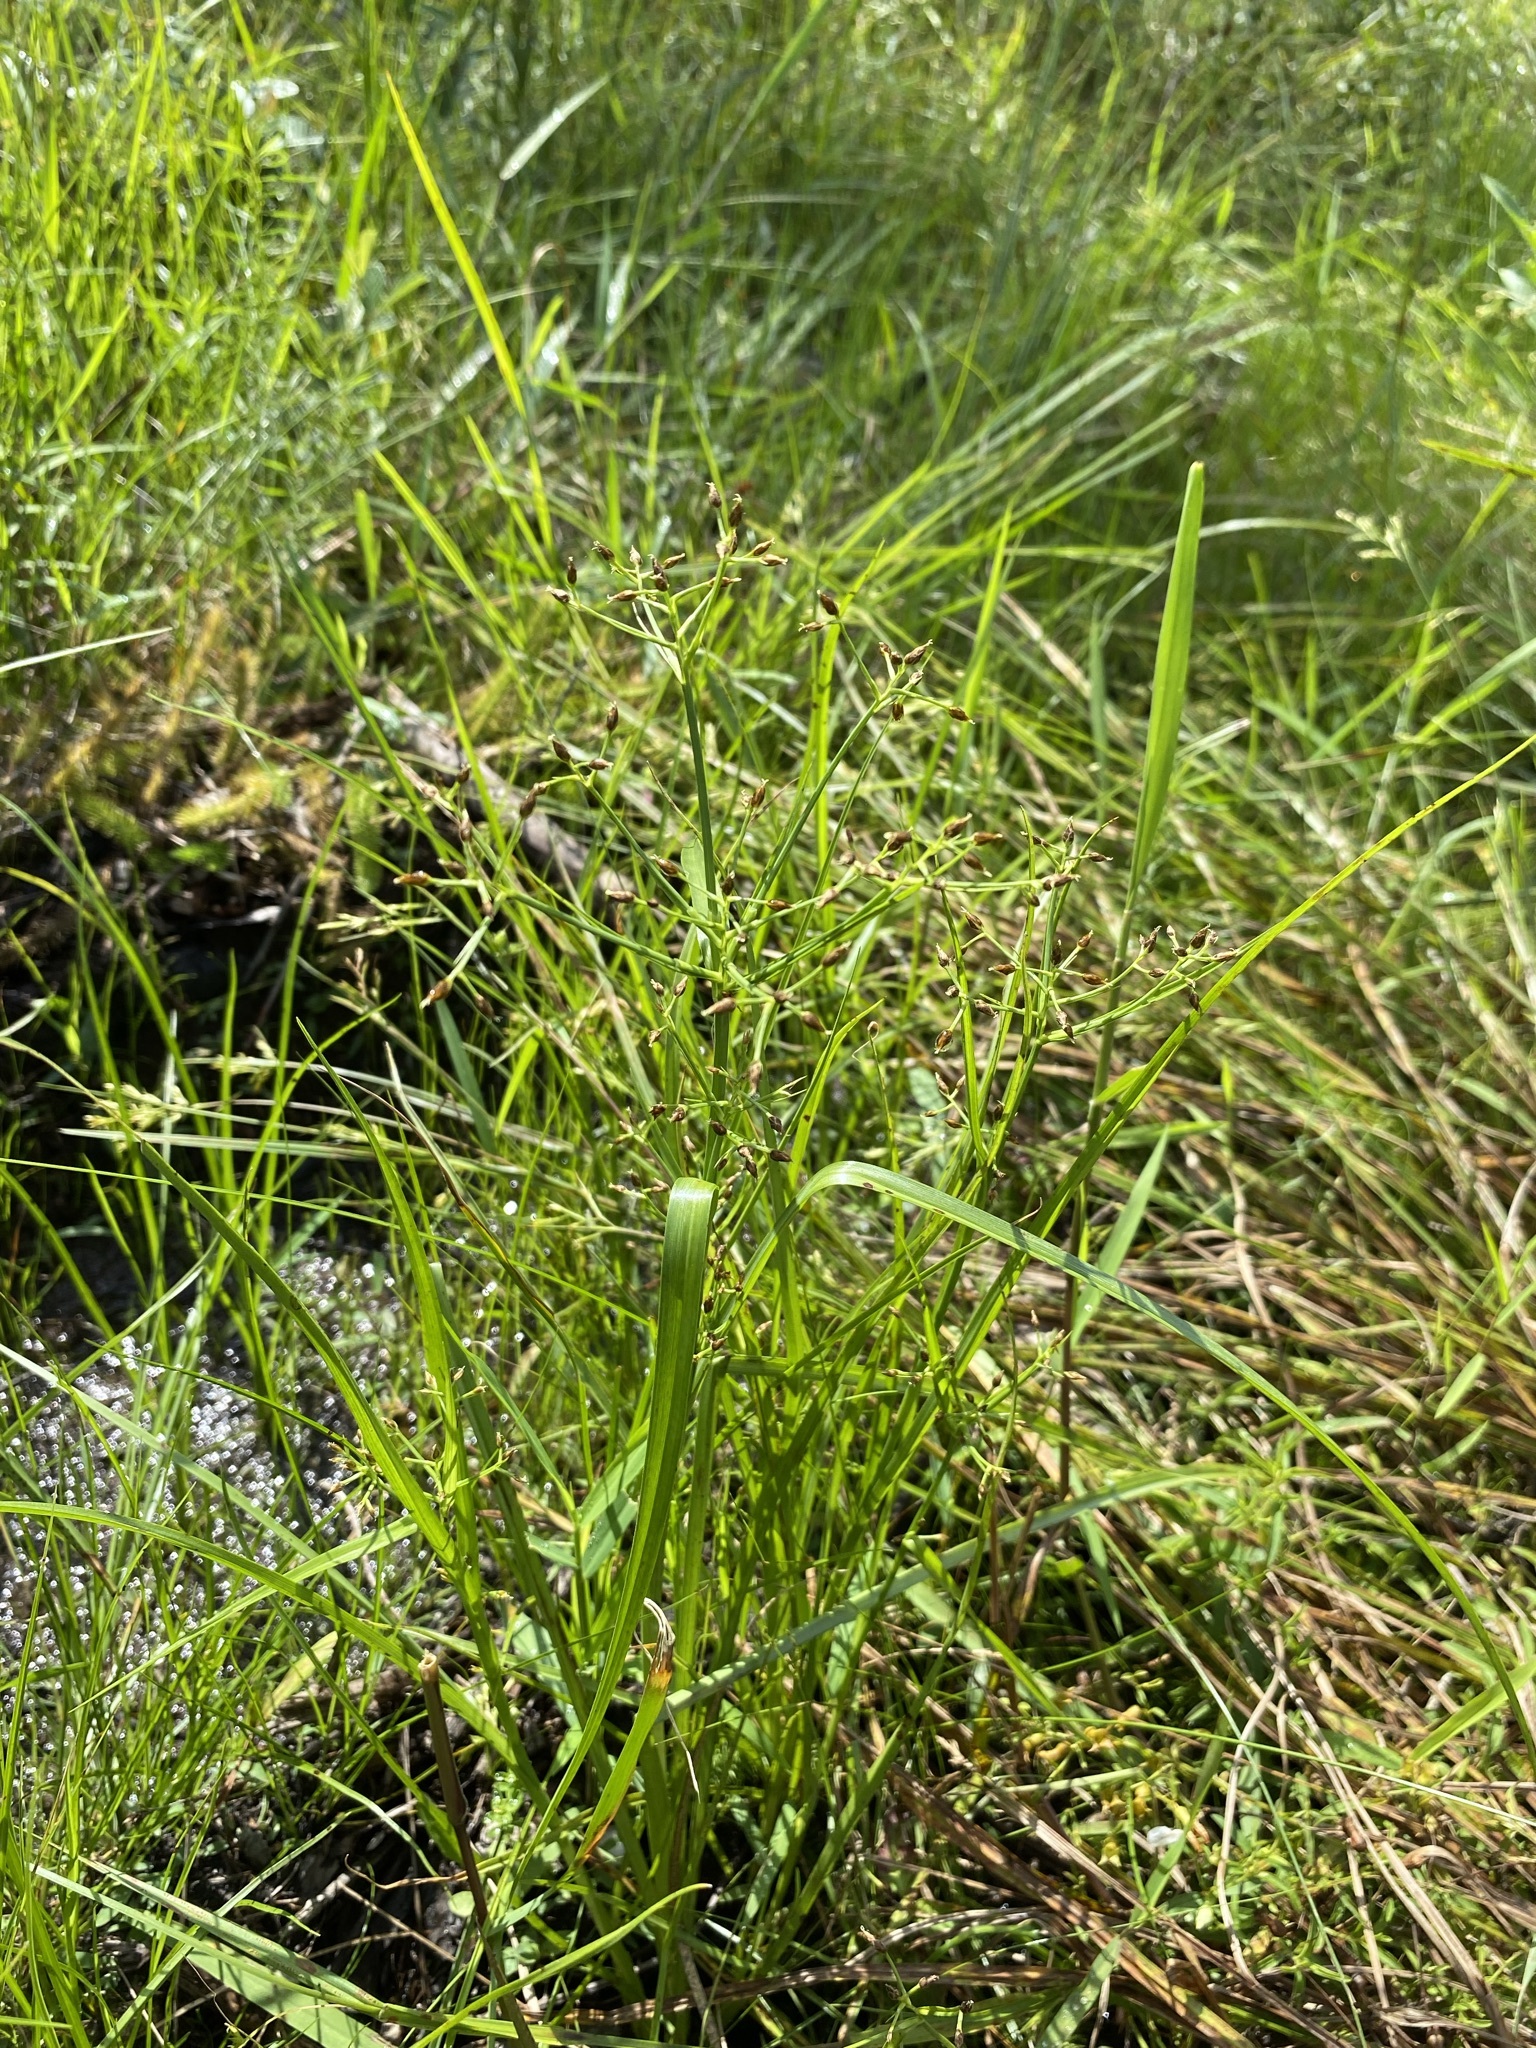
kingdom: Plantae
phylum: Tracheophyta
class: Liliopsida
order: Poales
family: Cyperaceae
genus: Rhynchospora
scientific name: Rhynchospora nitens
